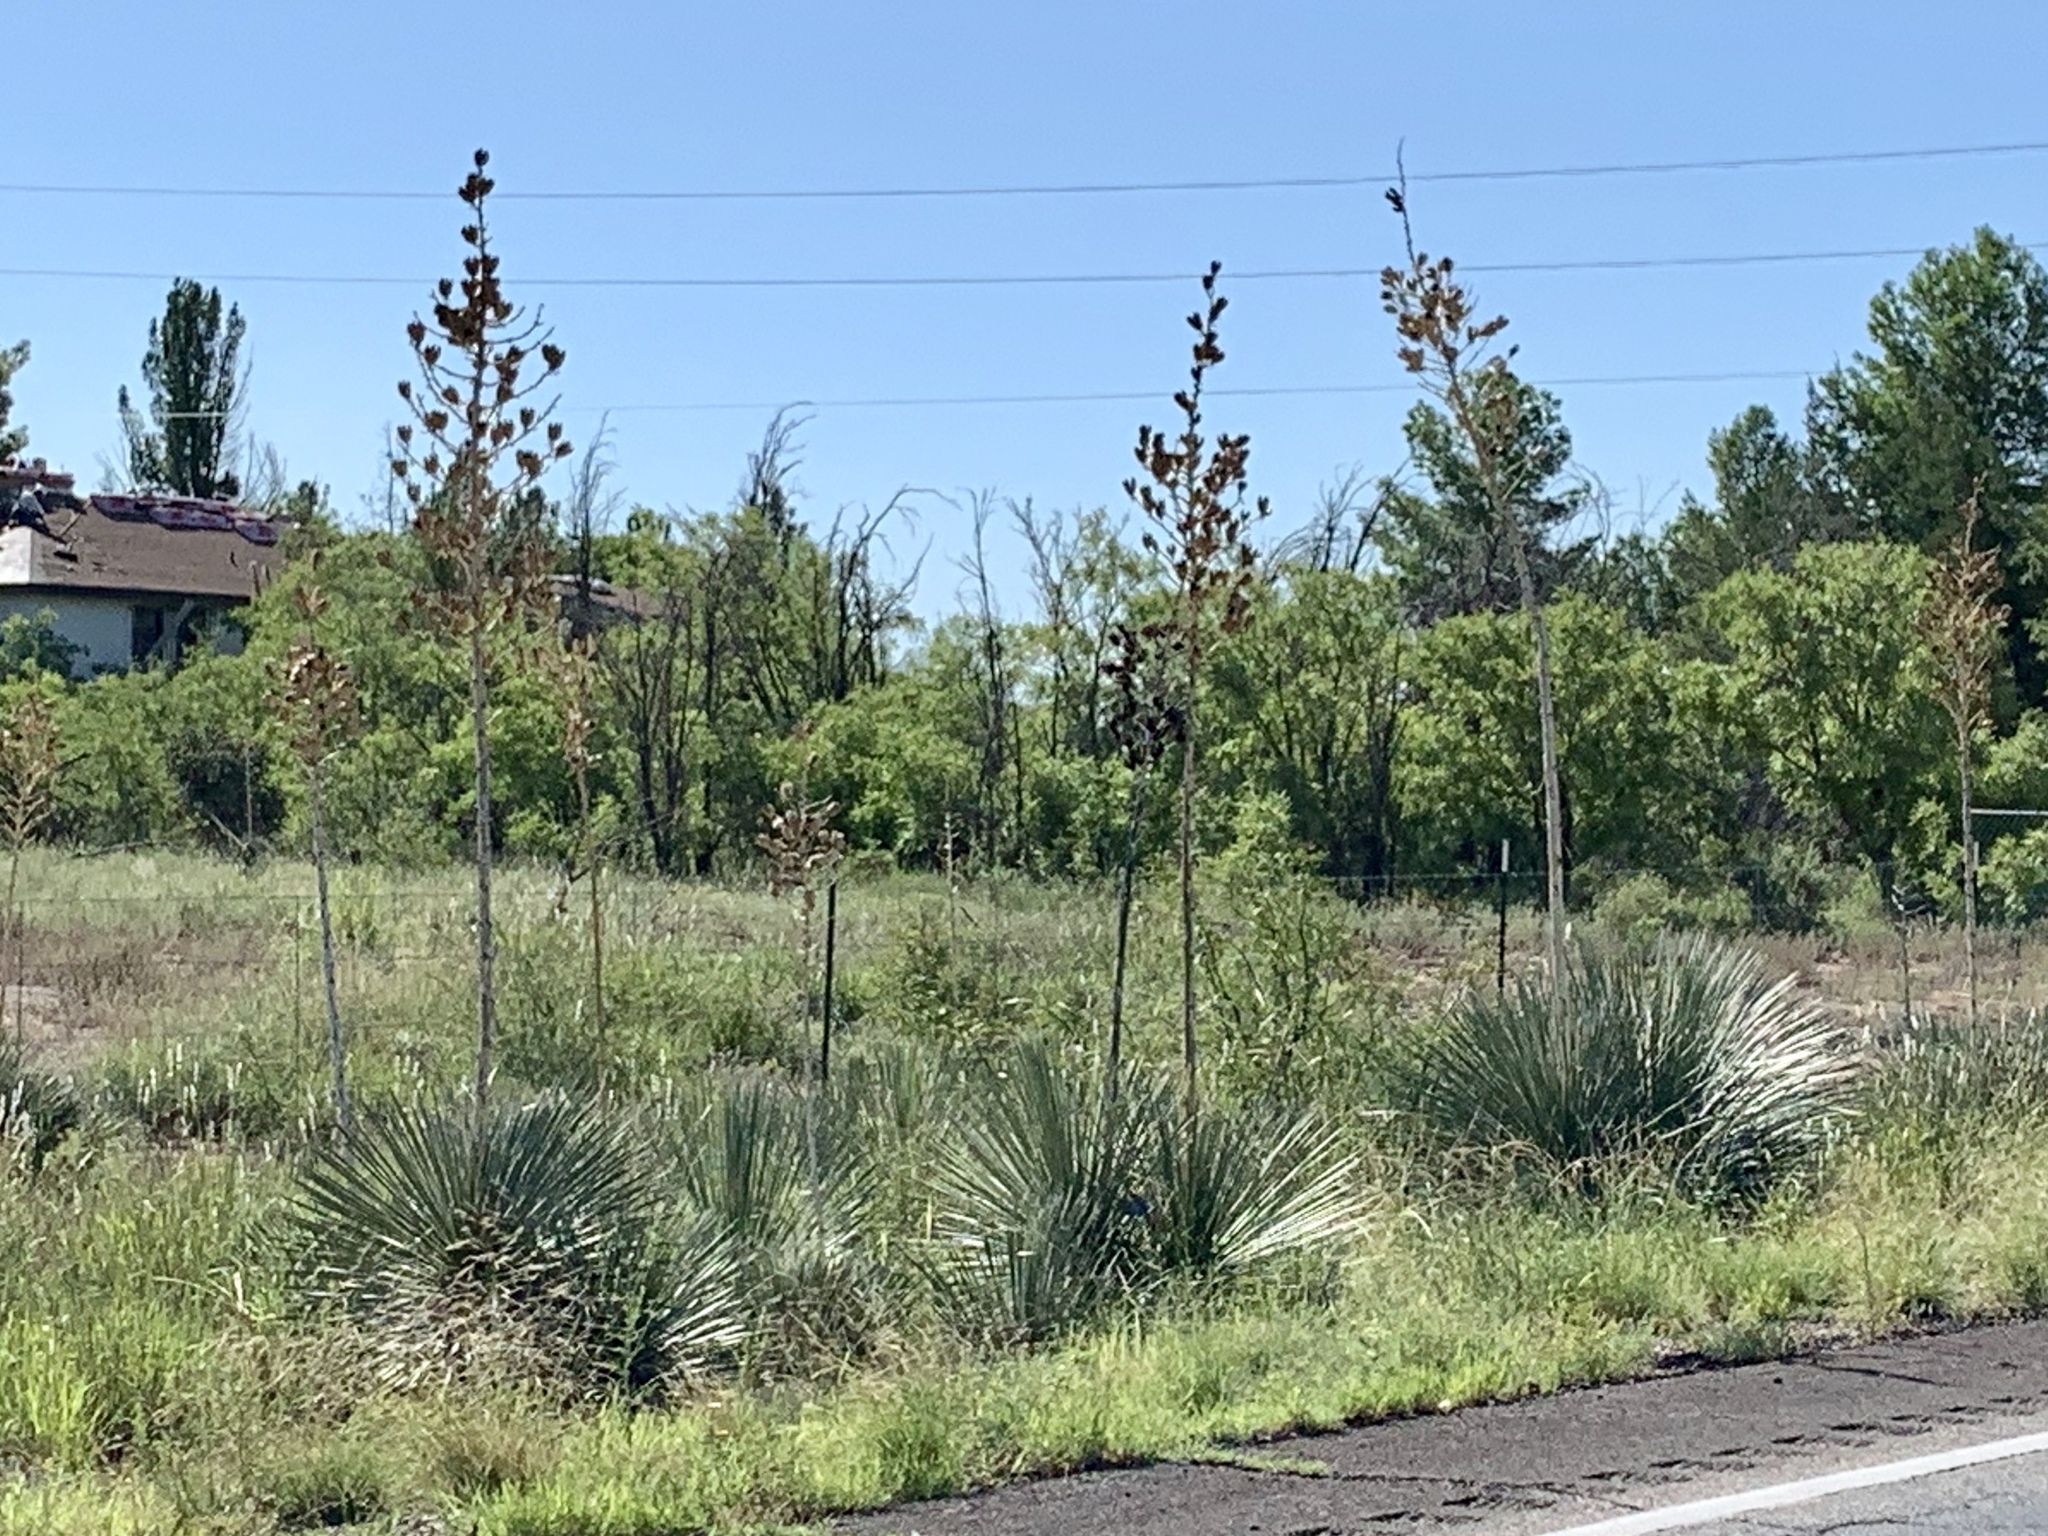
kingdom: Plantae
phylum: Tracheophyta
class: Liliopsida
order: Asparagales
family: Asparagaceae
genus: Yucca
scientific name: Yucca elata
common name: Palmella
